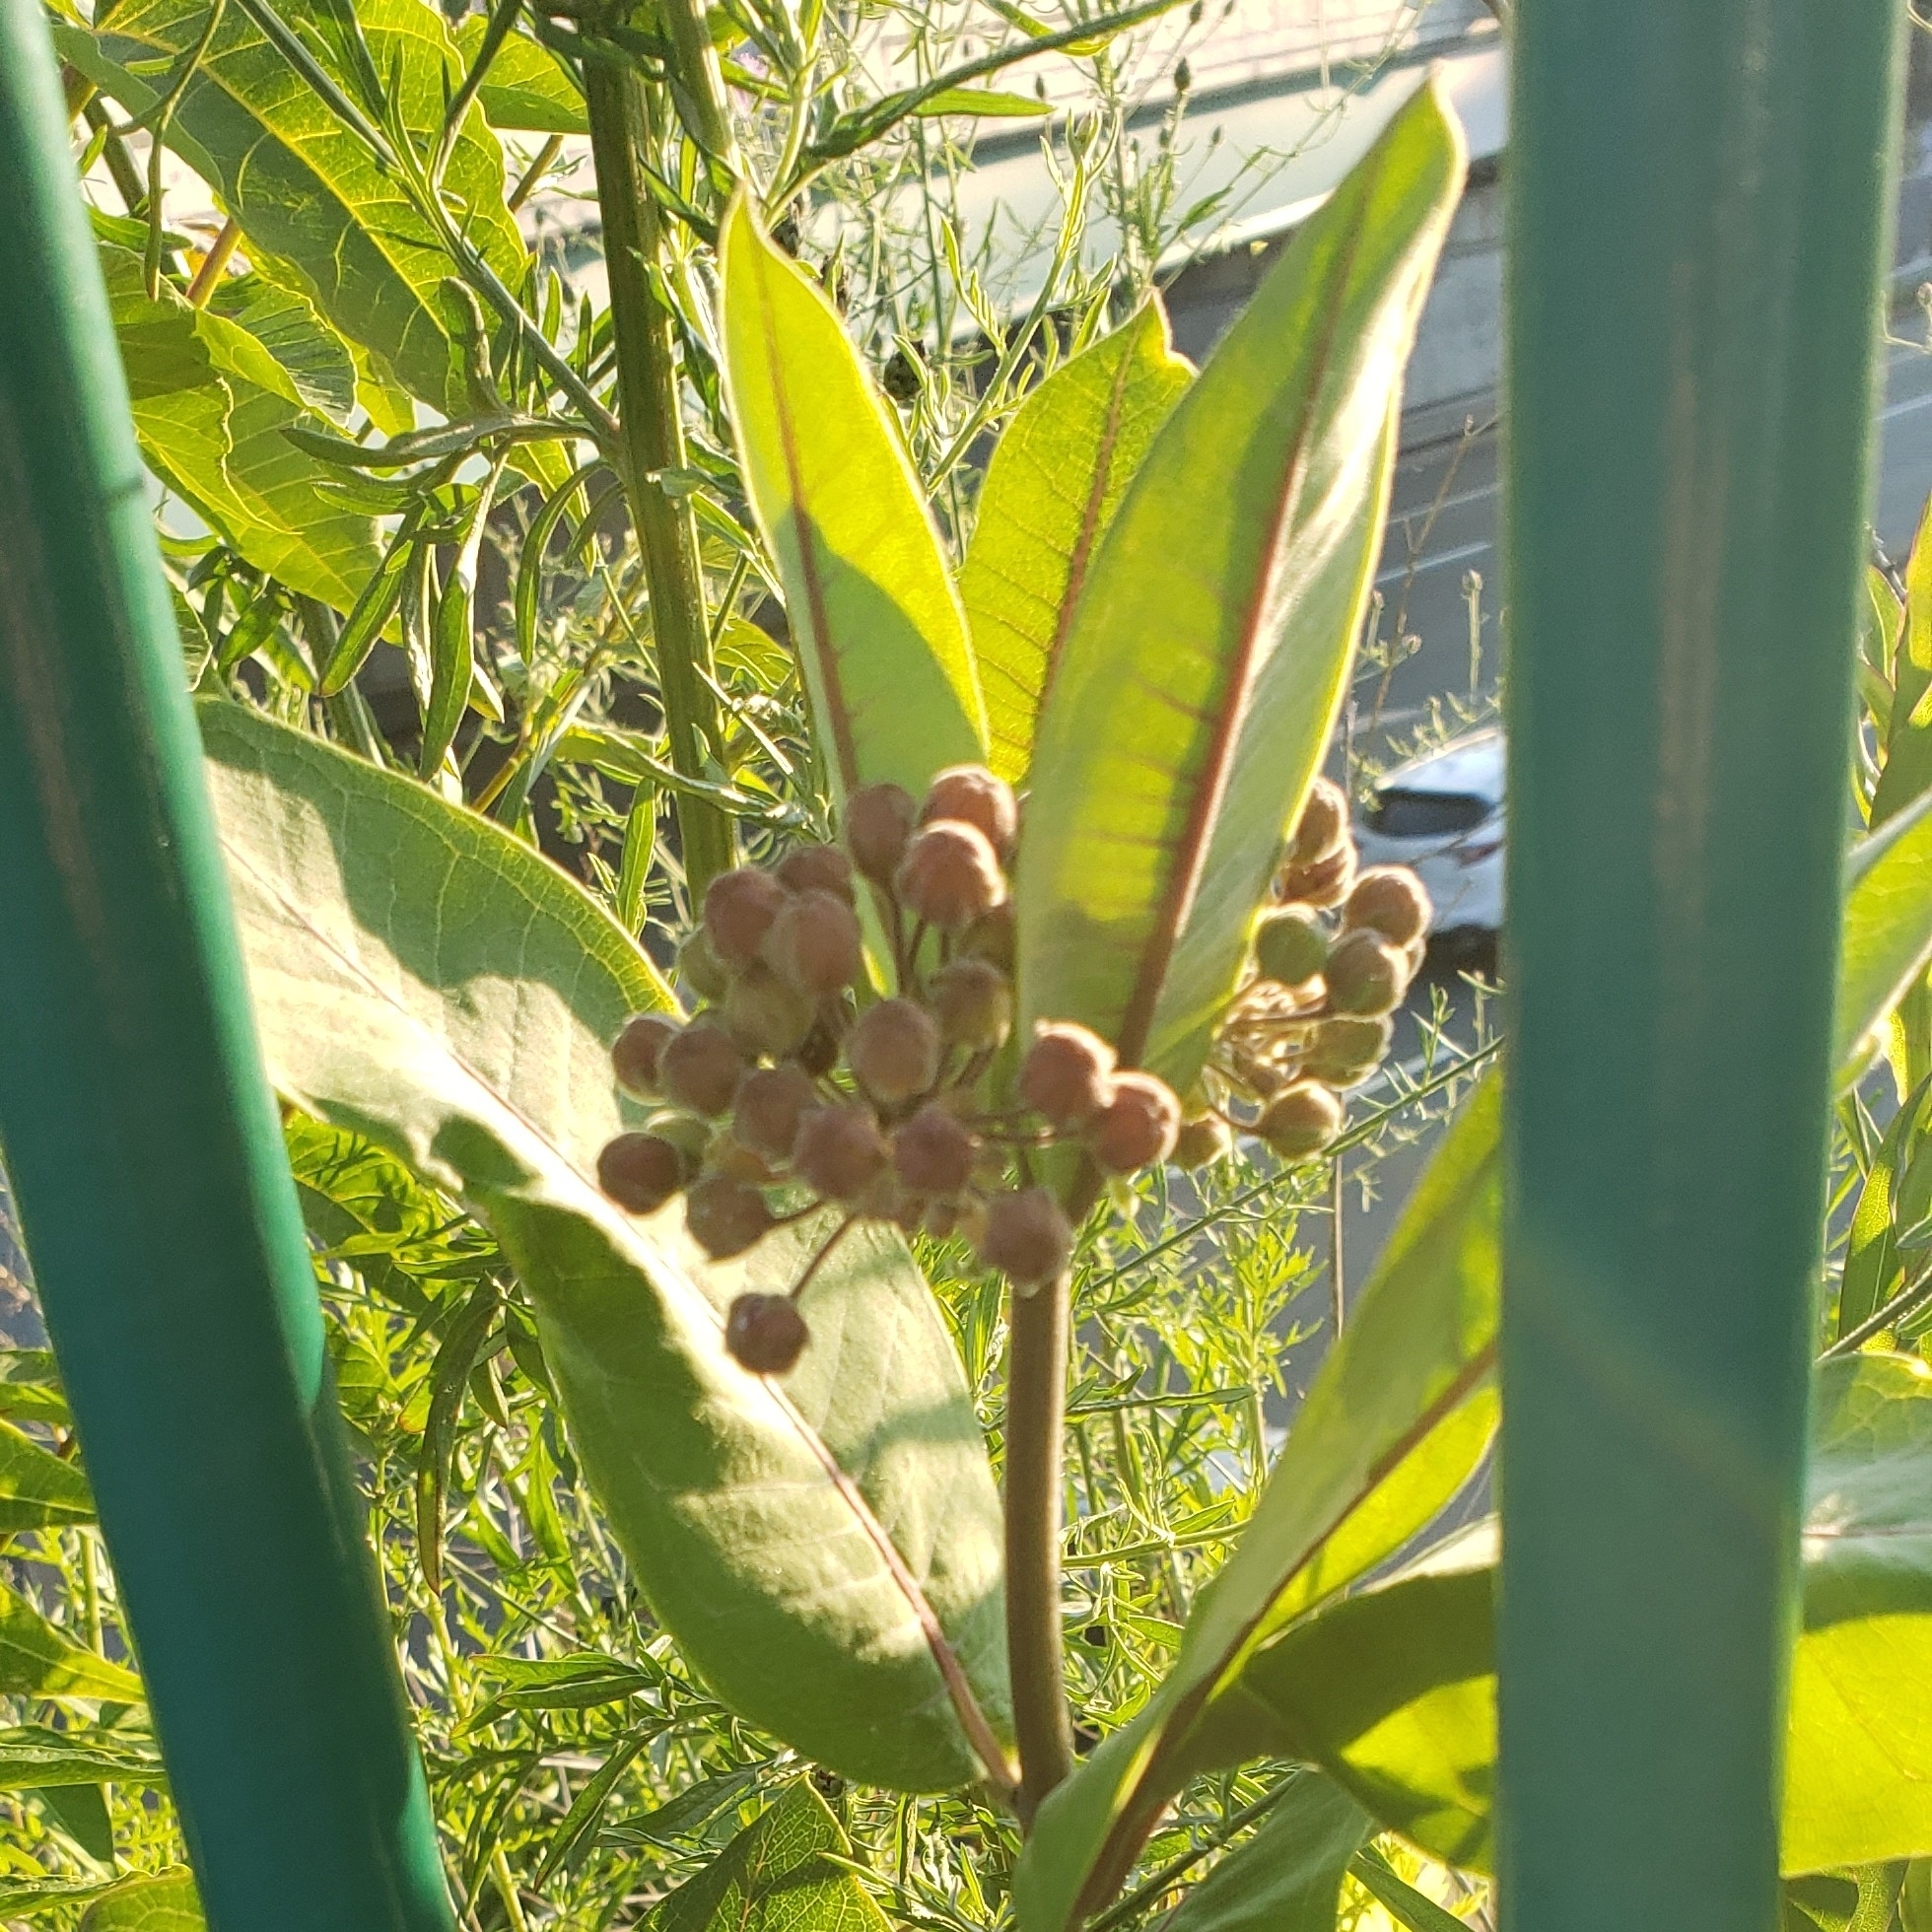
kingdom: Plantae
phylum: Tracheophyta
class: Magnoliopsida
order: Gentianales
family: Apocynaceae
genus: Asclepias
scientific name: Asclepias syriaca
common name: Common milkweed
